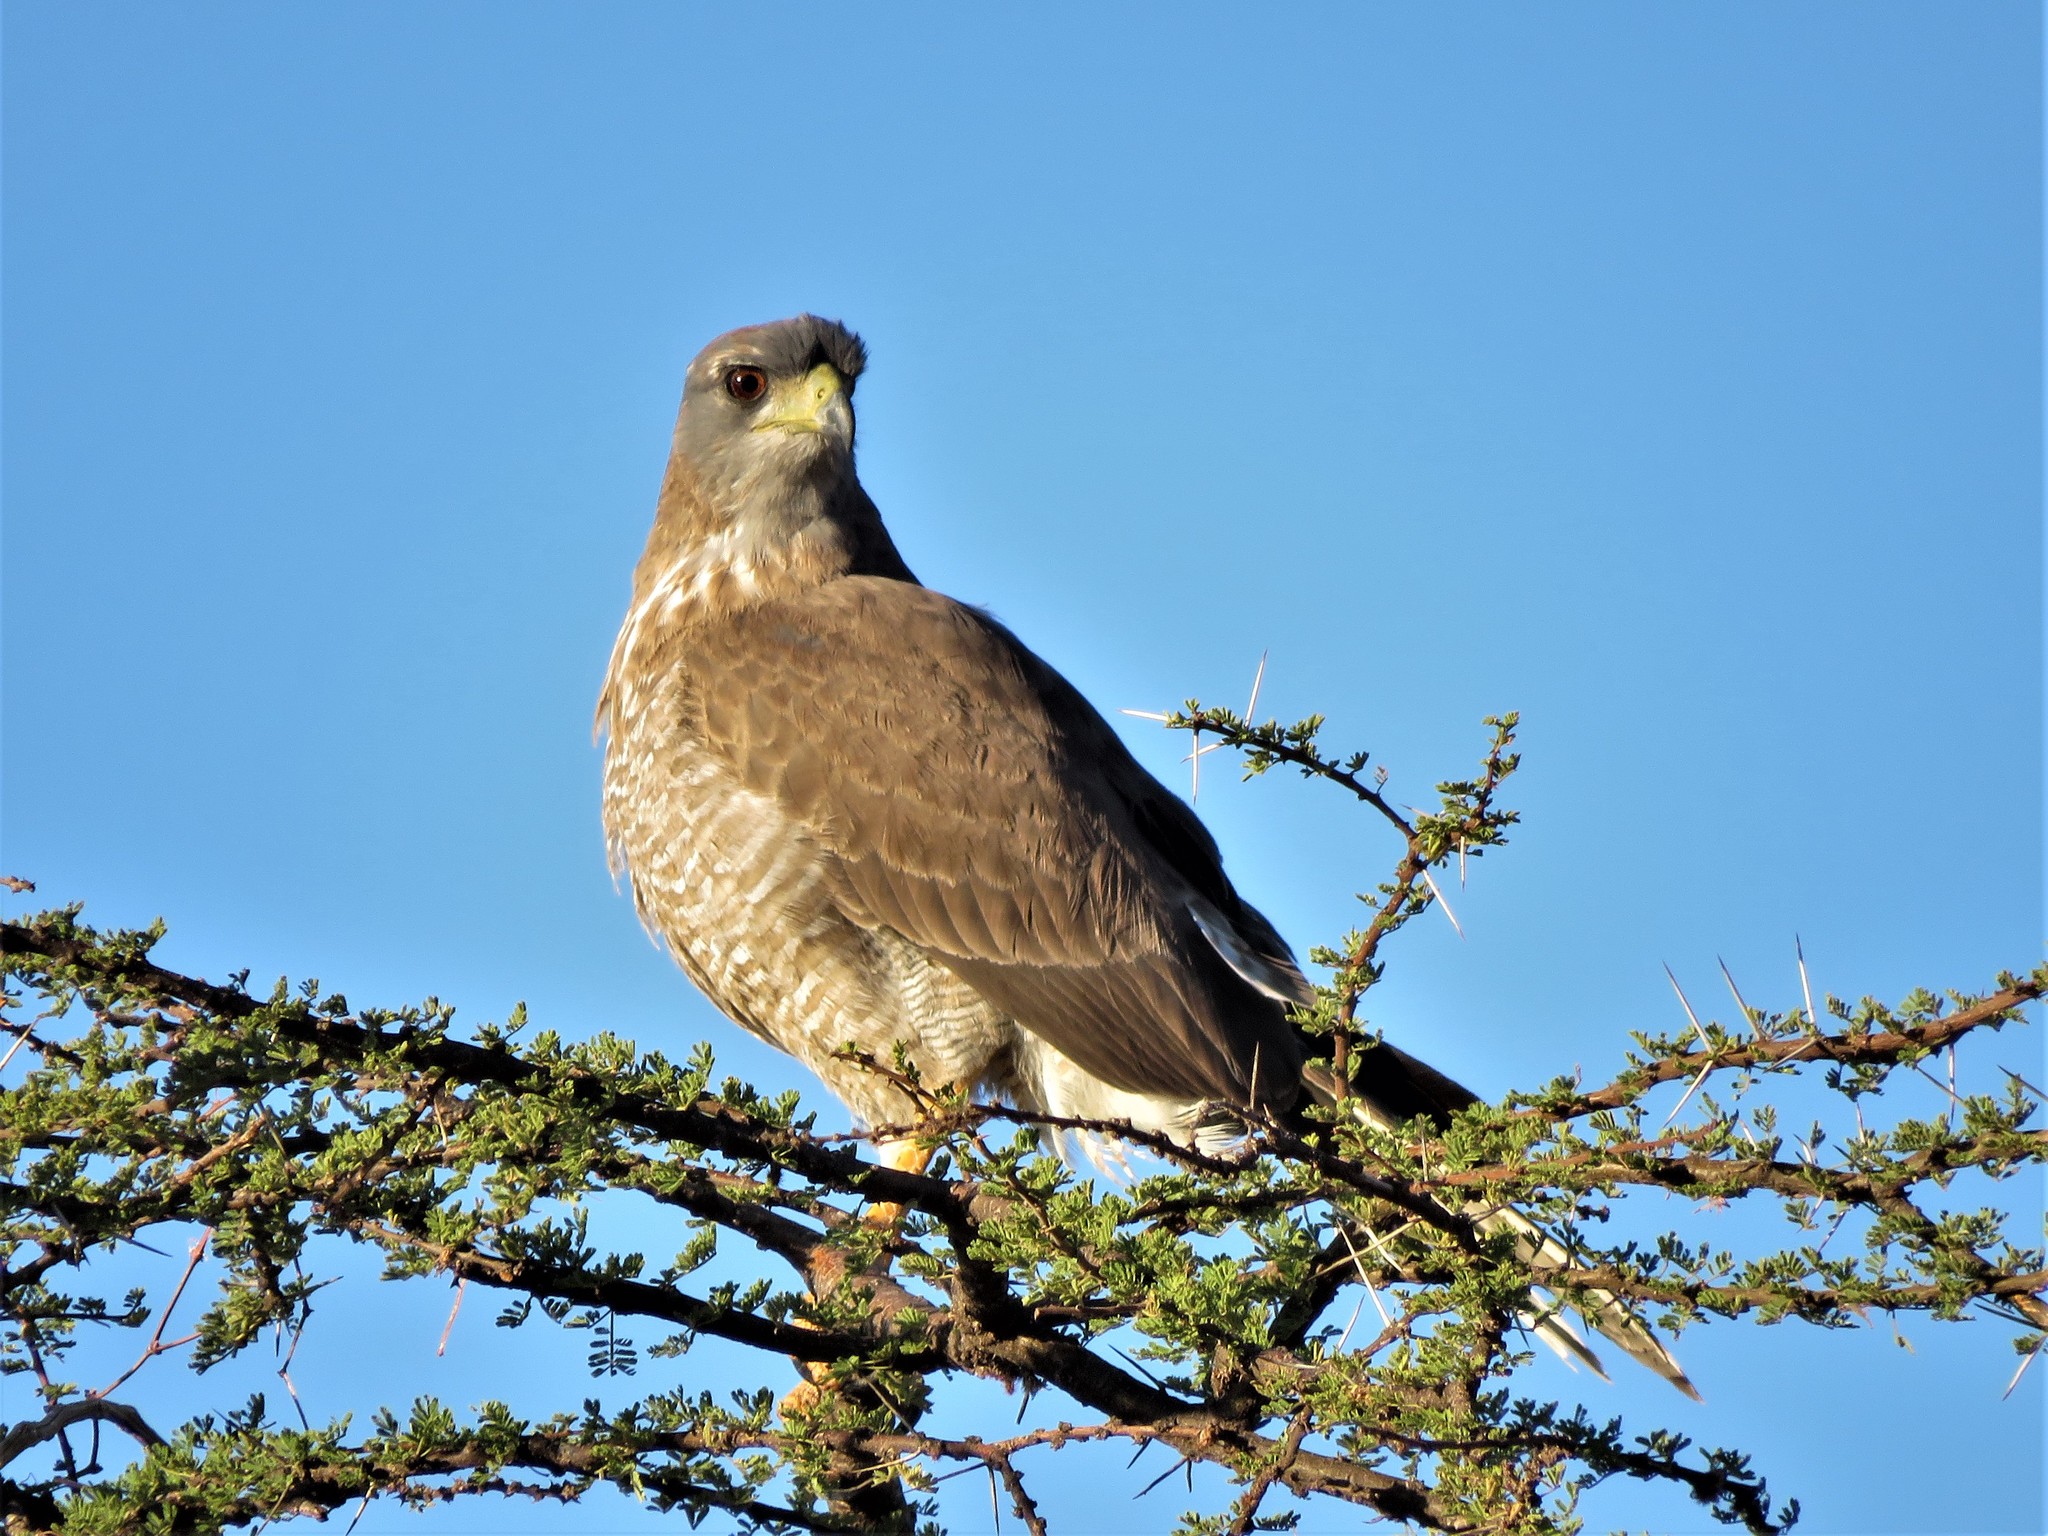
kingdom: Animalia
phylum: Chordata
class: Aves
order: Accipitriformes
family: Accipitridae
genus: Melierax
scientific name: Melierax poliopterus
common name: Eastern chanting goshawk
